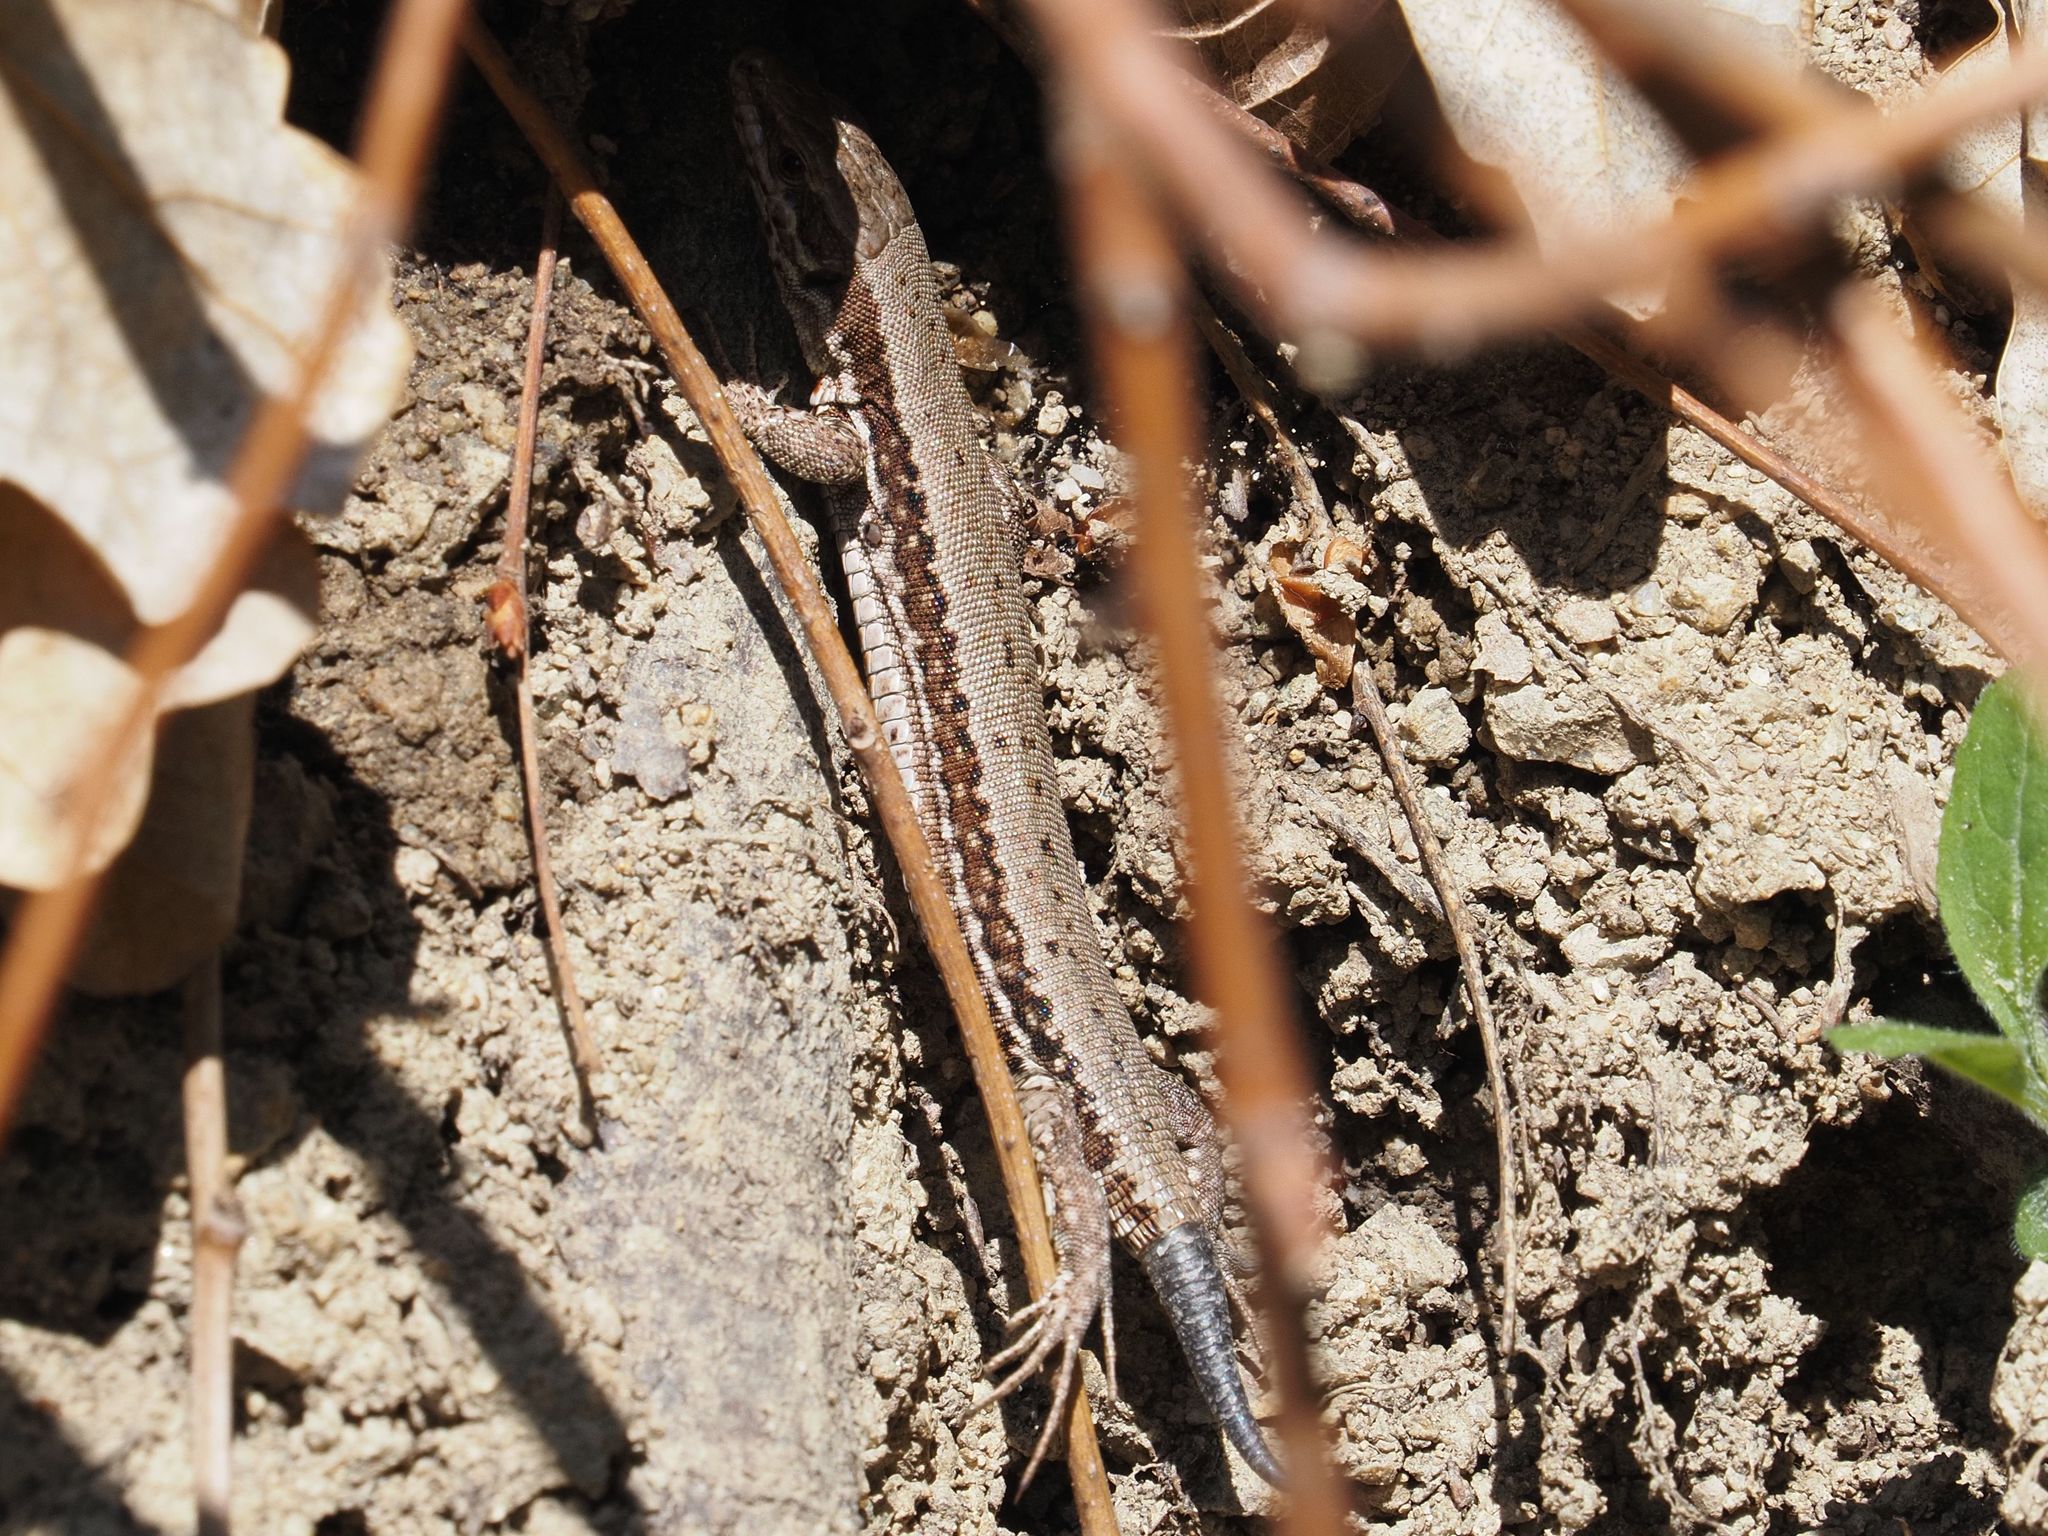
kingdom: Animalia
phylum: Chordata
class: Squamata
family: Lacertidae
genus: Podarcis
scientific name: Podarcis muralis
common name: Common wall lizard
